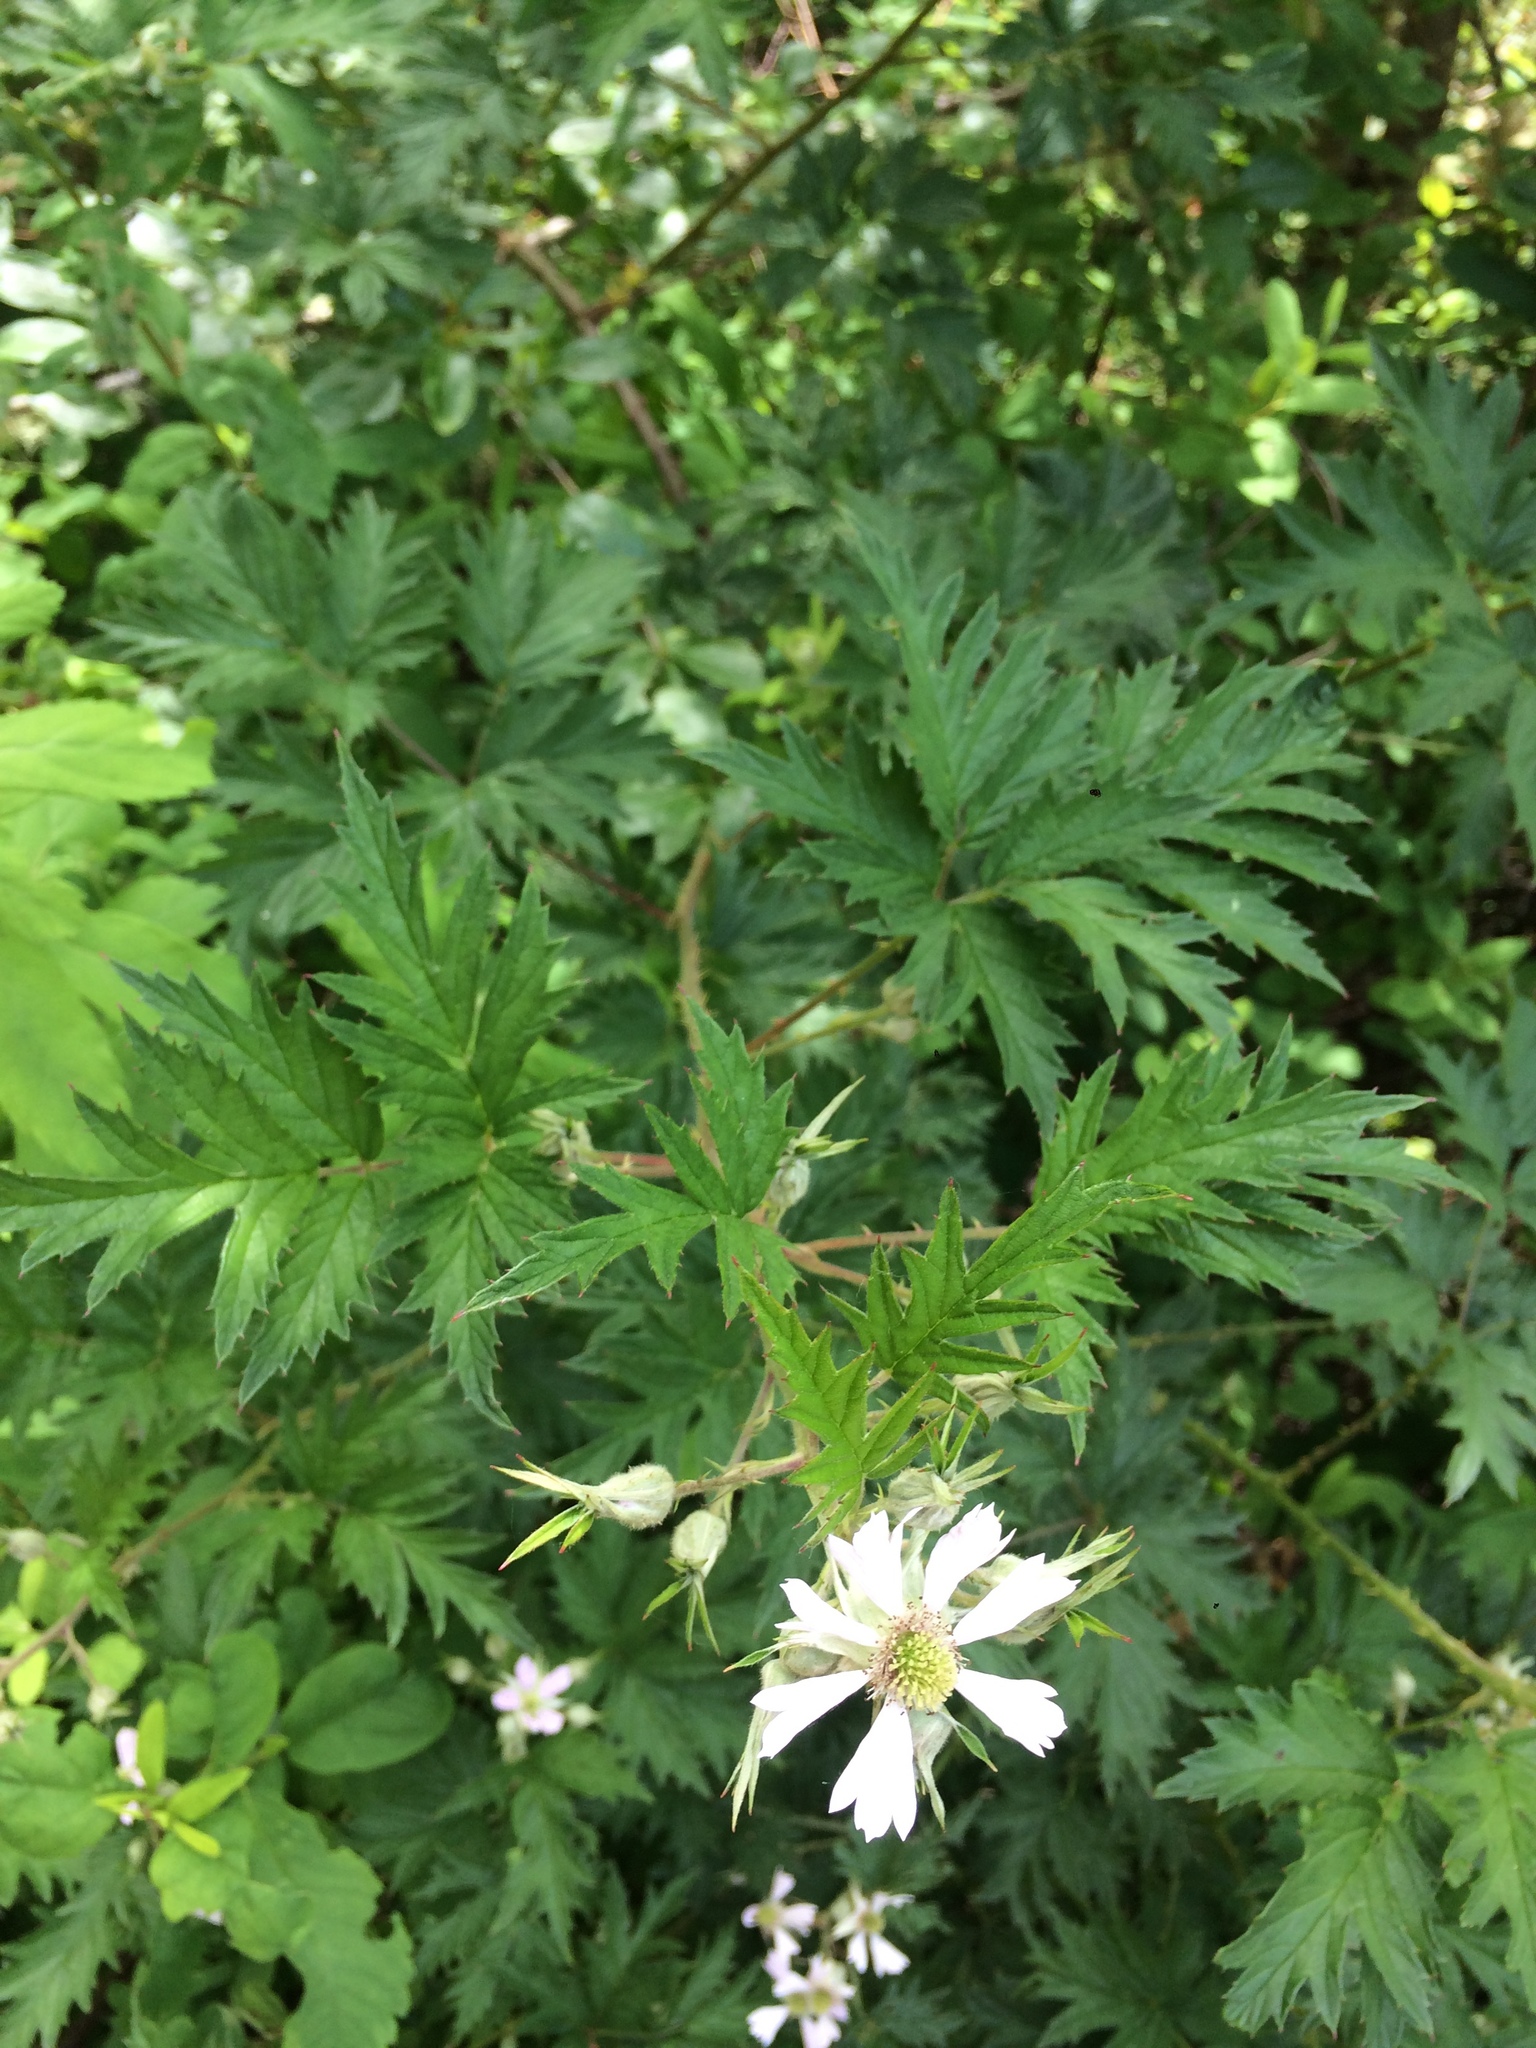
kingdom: Plantae
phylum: Tracheophyta
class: Magnoliopsida
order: Rosales
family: Rosaceae
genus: Rubus
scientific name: Rubus laciniatus
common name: Evergreen blackberry
